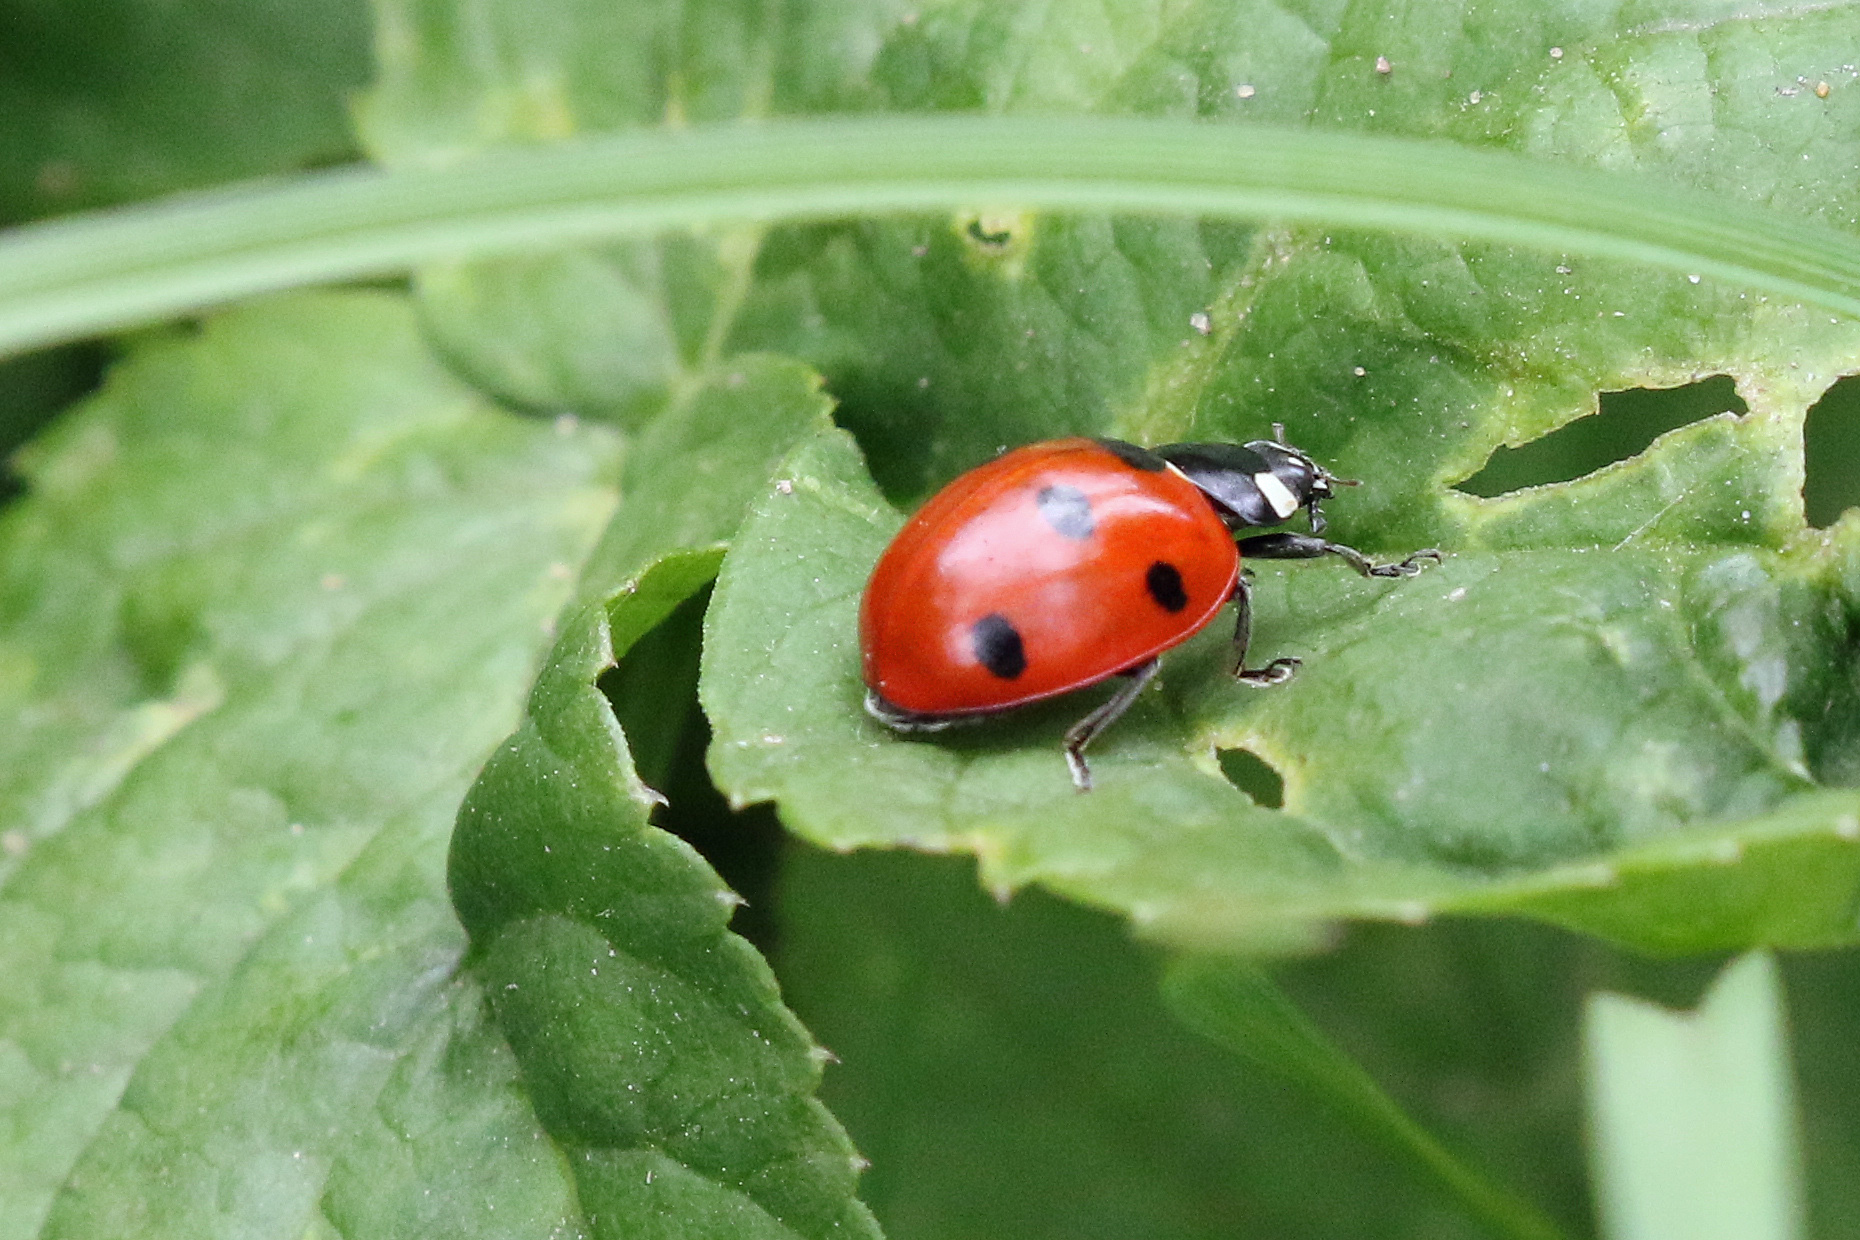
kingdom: Animalia
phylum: Arthropoda
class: Insecta
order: Coleoptera
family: Coccinellidae
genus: Coccinella
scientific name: Coccinella septempunctata
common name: Sevenspotted lady beetle
